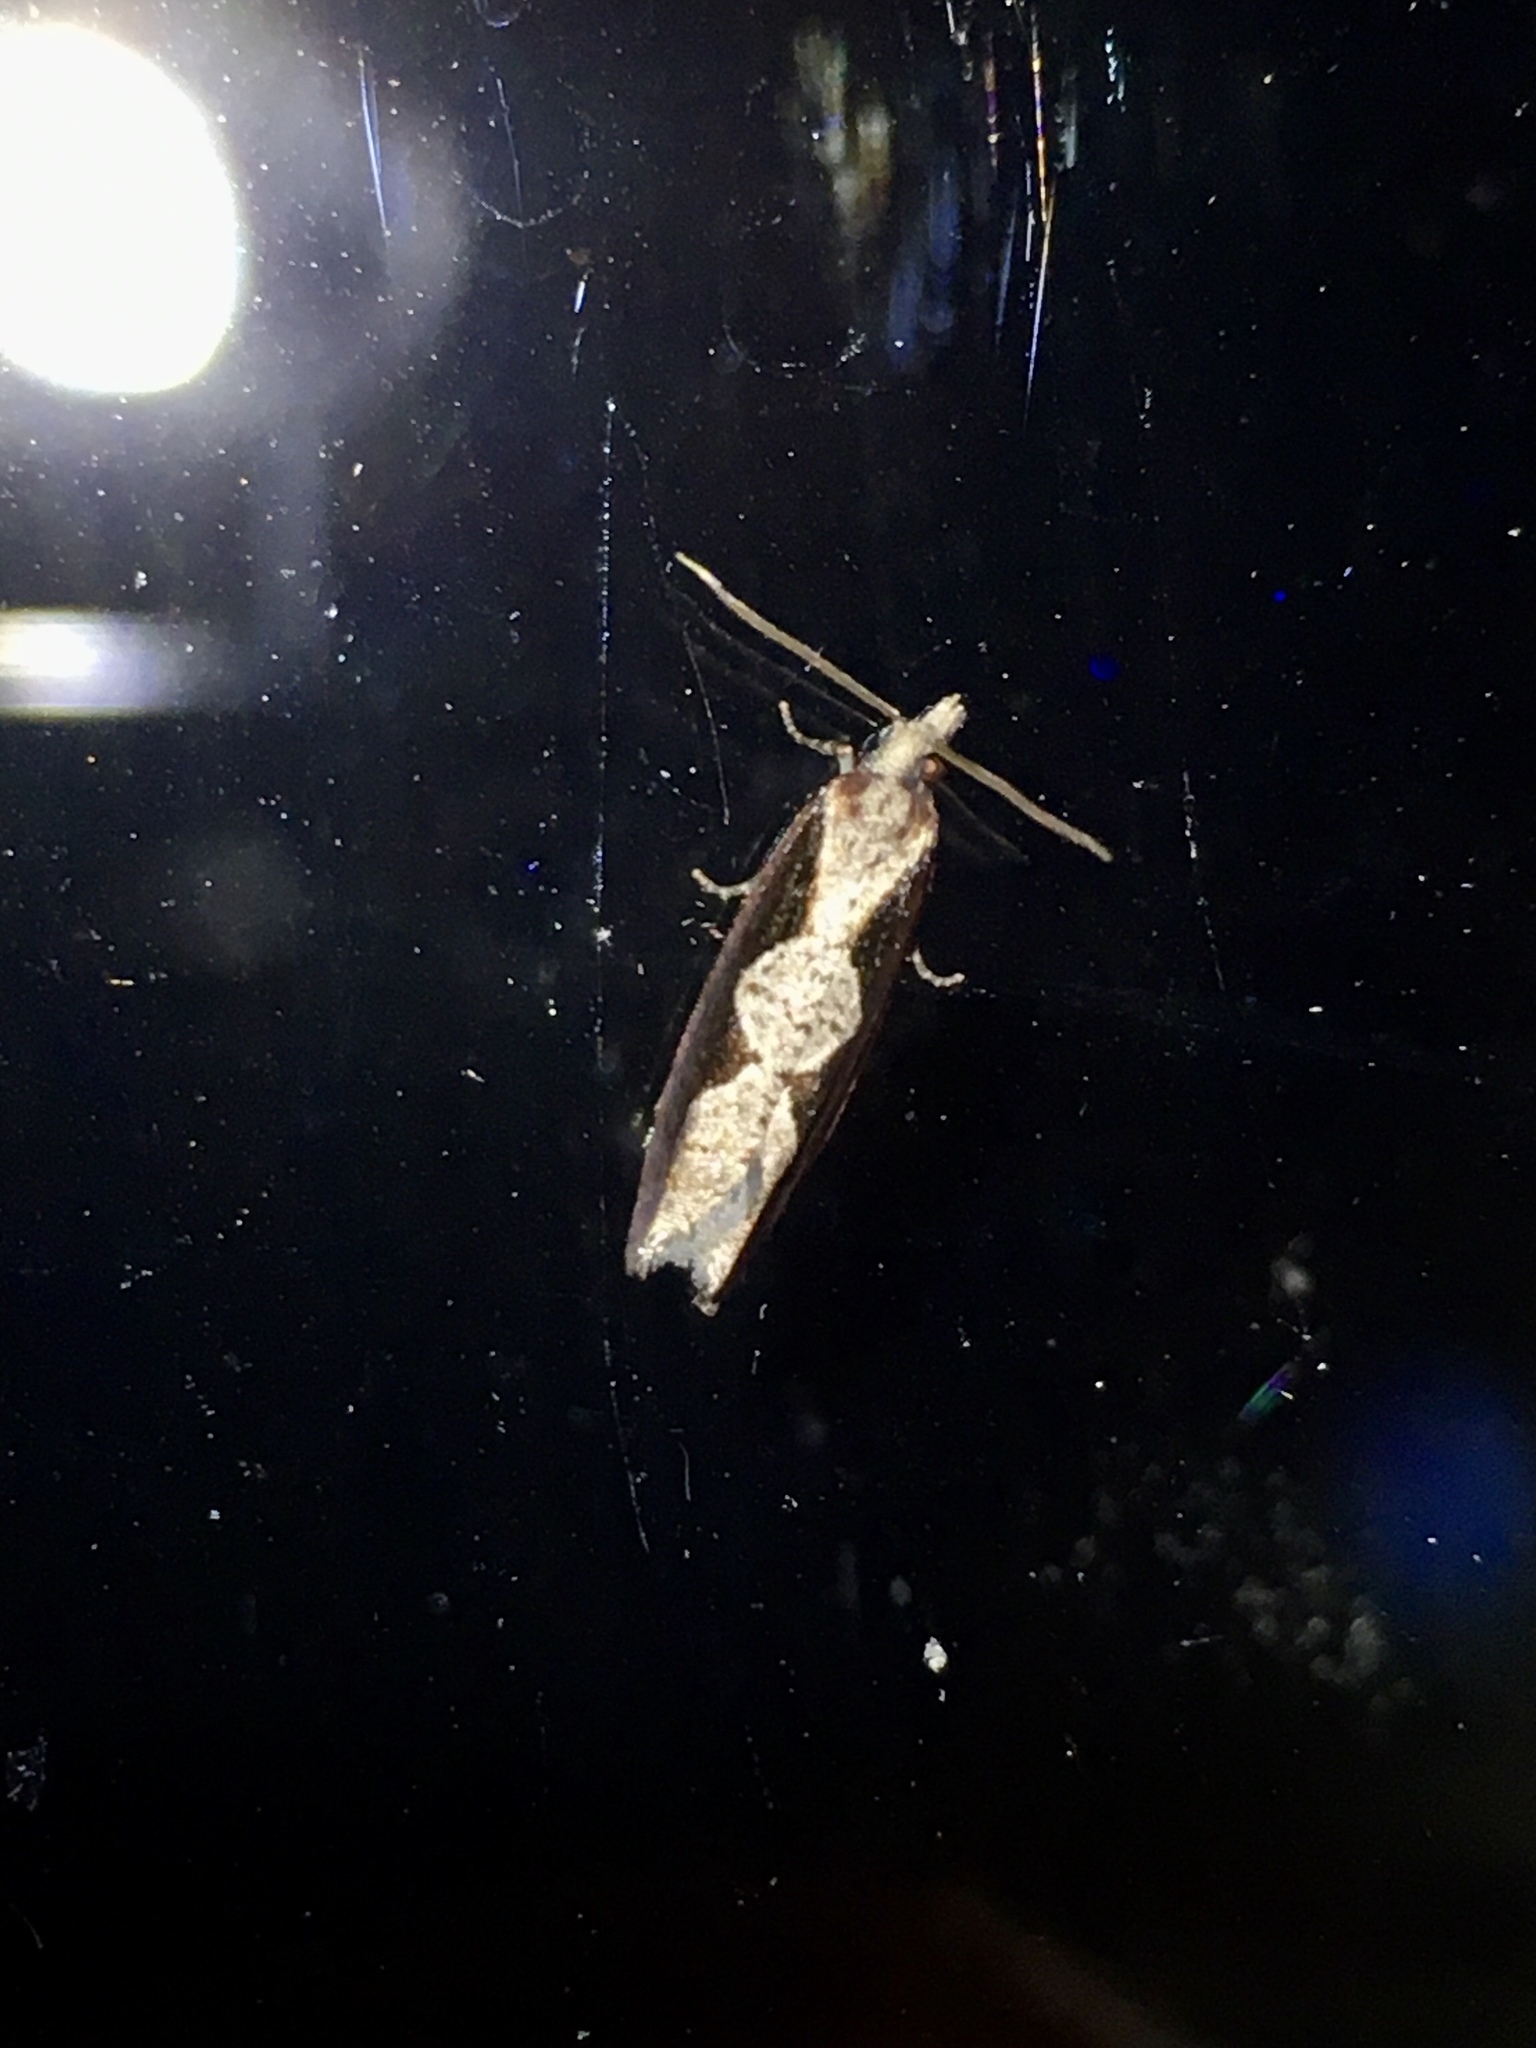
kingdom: Animalia
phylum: Arthropoda
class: Insecta
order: Lepidoptera
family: Tortricidae
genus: Epinotia
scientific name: Epinotia lindana
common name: Diamondback epinotia moth
